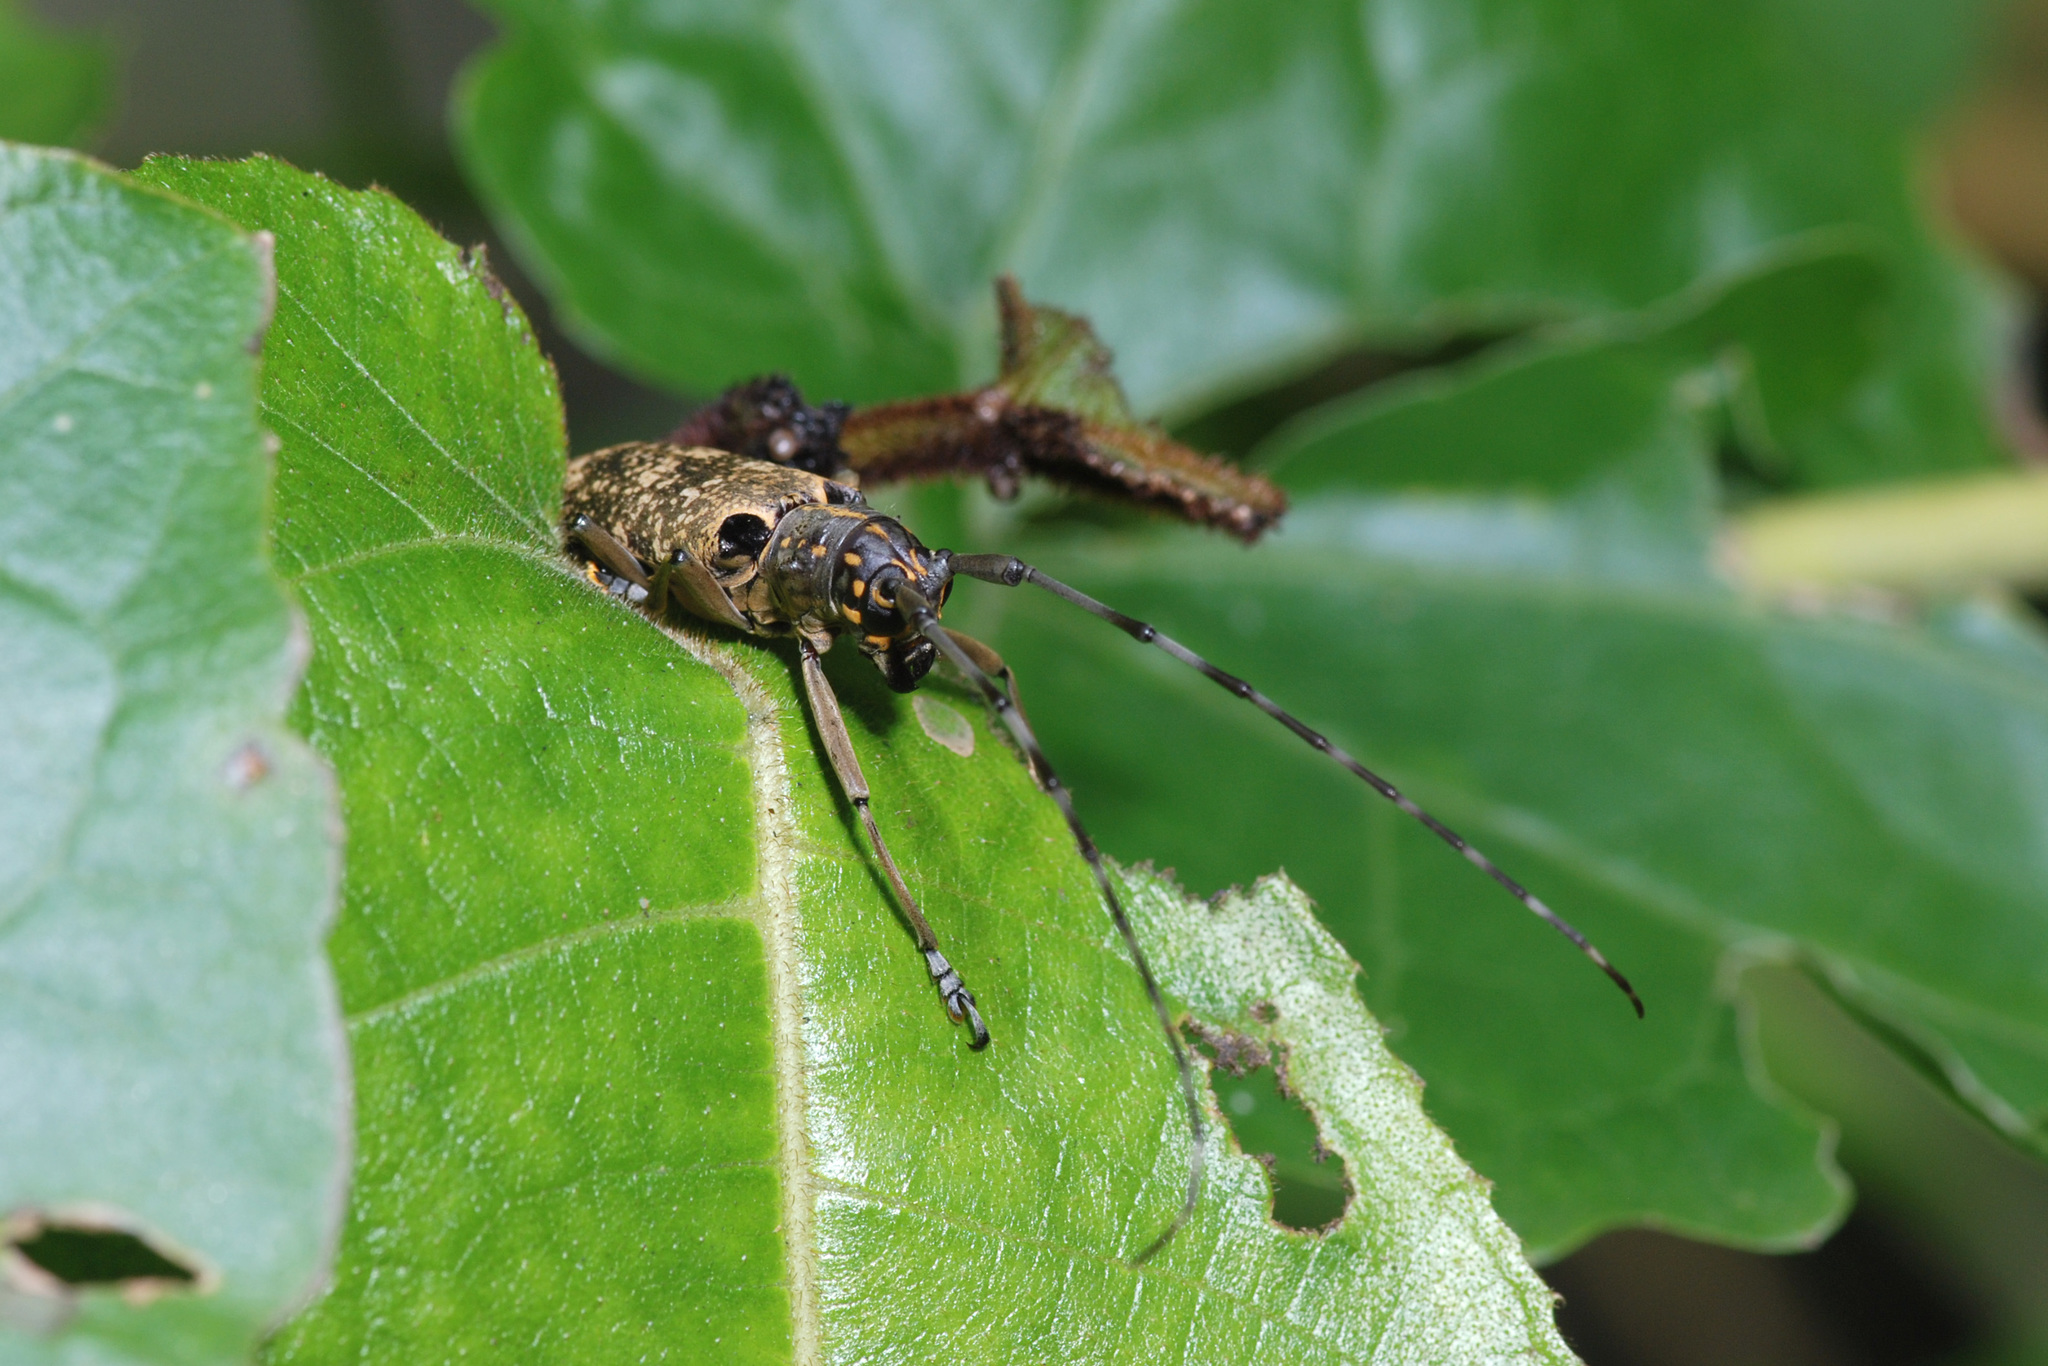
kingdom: Animalia
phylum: Arthropoda
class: Insecta
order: Coleoptera
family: Cerambycidae
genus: Epepeotes
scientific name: Epepeotes luscus
